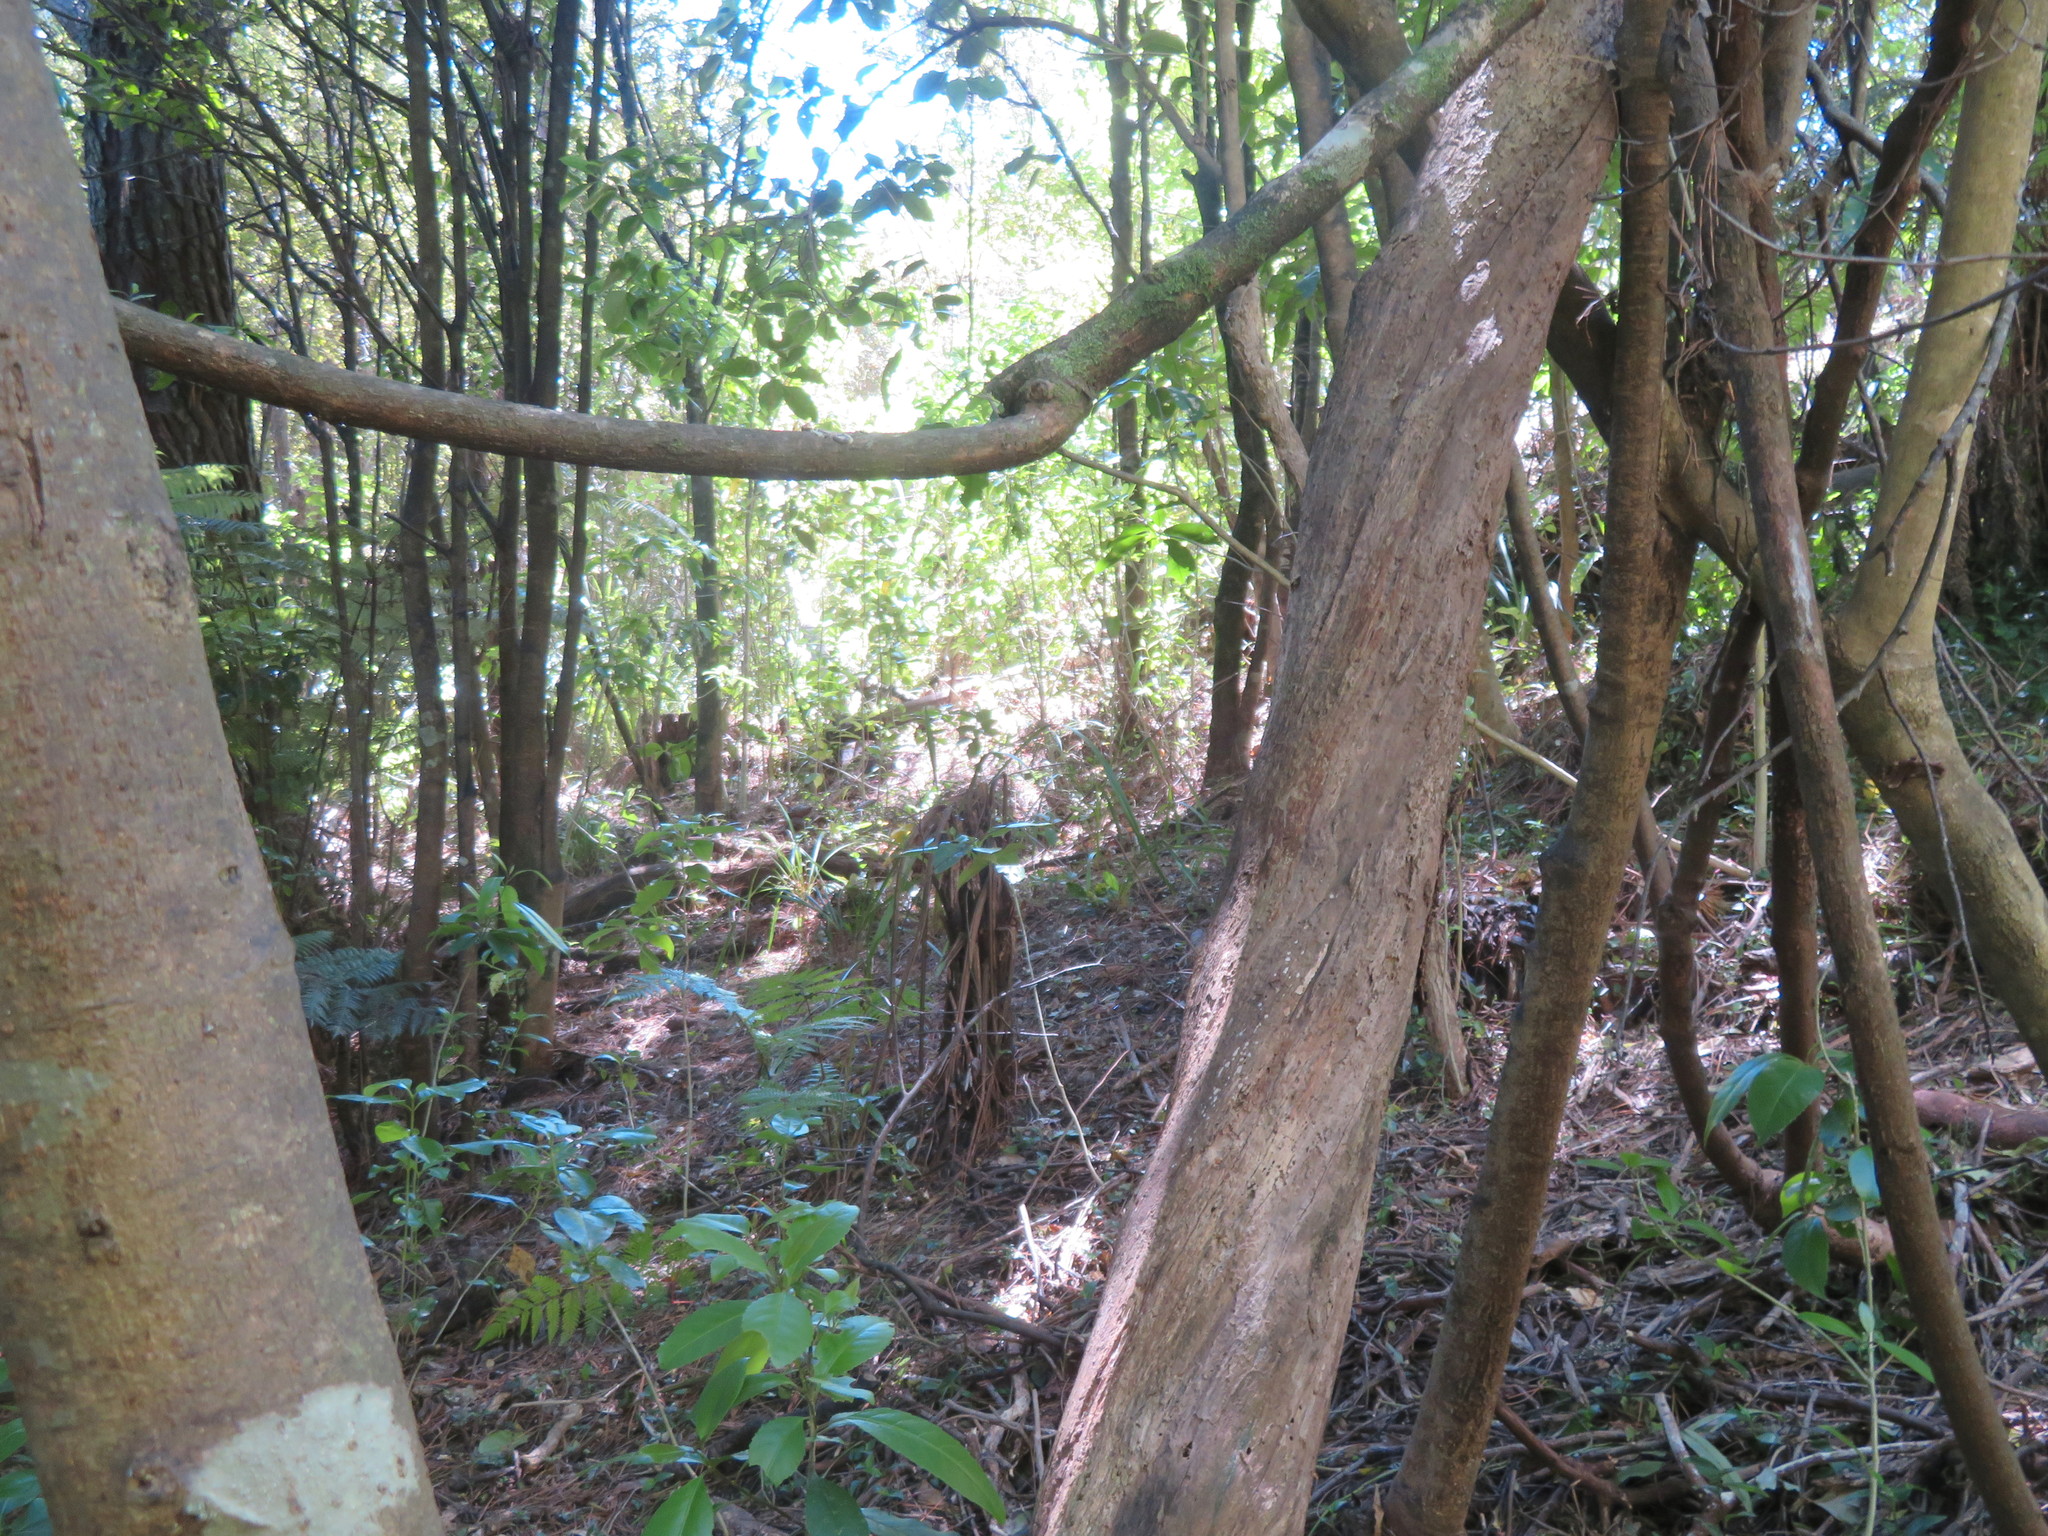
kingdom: Plantae
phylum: Tracheophyta
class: Magnoliopsida
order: Malpighiales
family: Violaceae
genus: Melicytus
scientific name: Melicytus ramiflorus
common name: Mahoe
